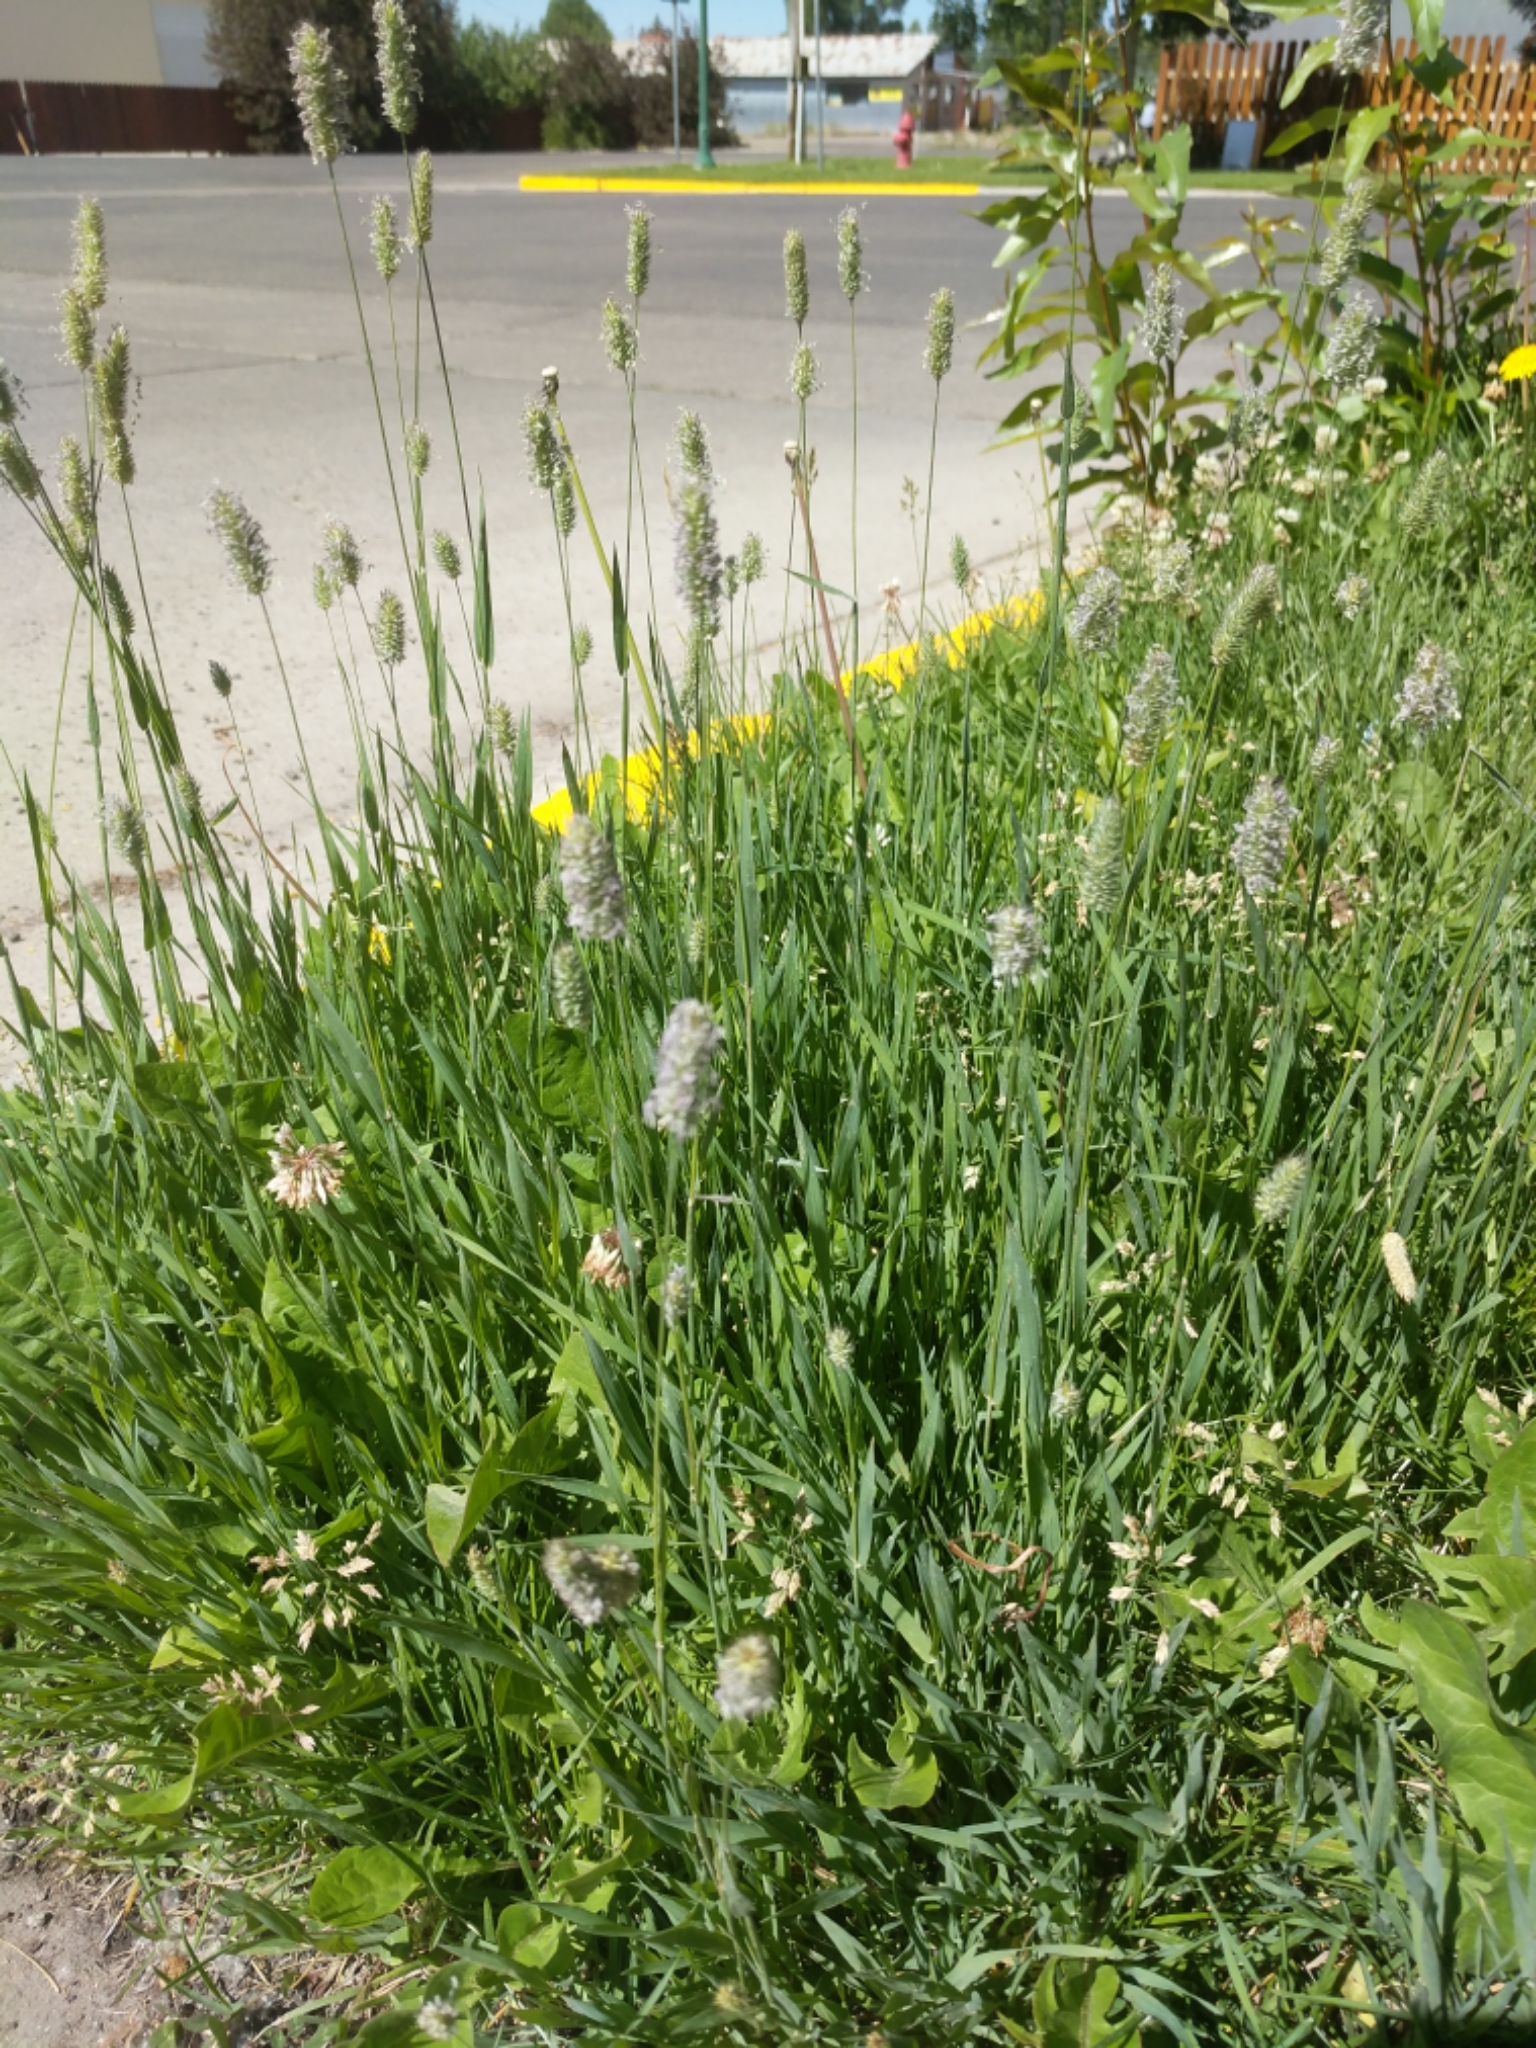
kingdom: Plantae
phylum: Tracheophyta
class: Liliopsida
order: Poales
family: Poaceae
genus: Phleum
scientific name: Phleum pratense
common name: Timothy grass
